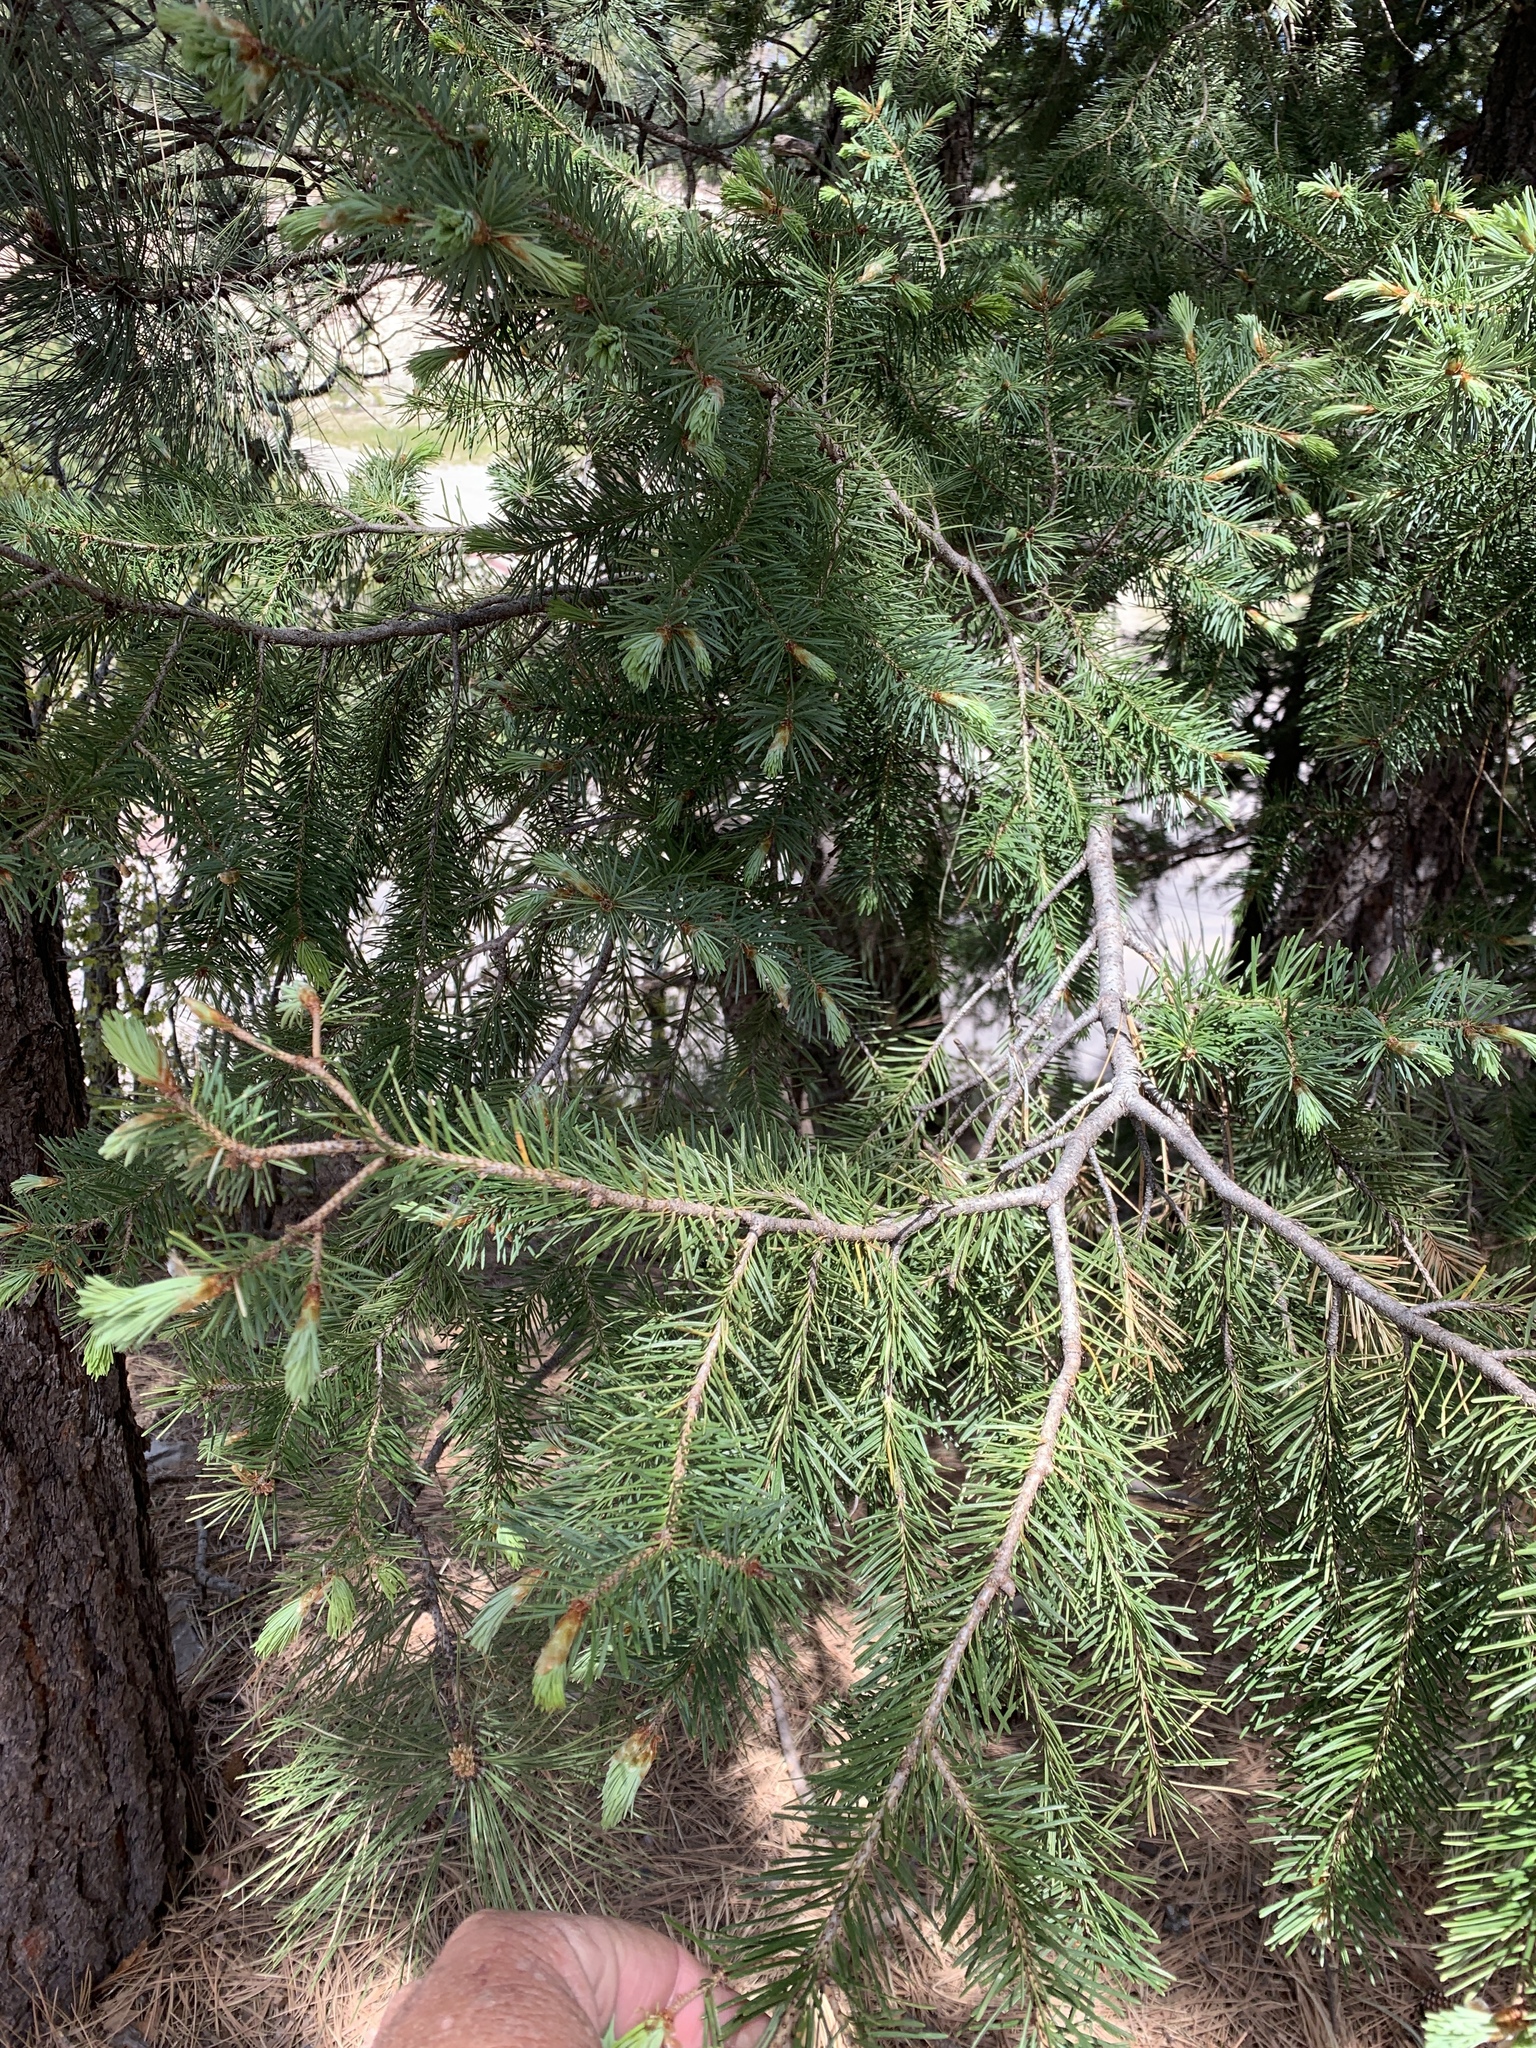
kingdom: Plantae
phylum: Tracheophyta
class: Pinopsida
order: Pinales
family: Pinaceae
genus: Pseudotsuga
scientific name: Pseudotsuga menziesii
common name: Douglas fir
